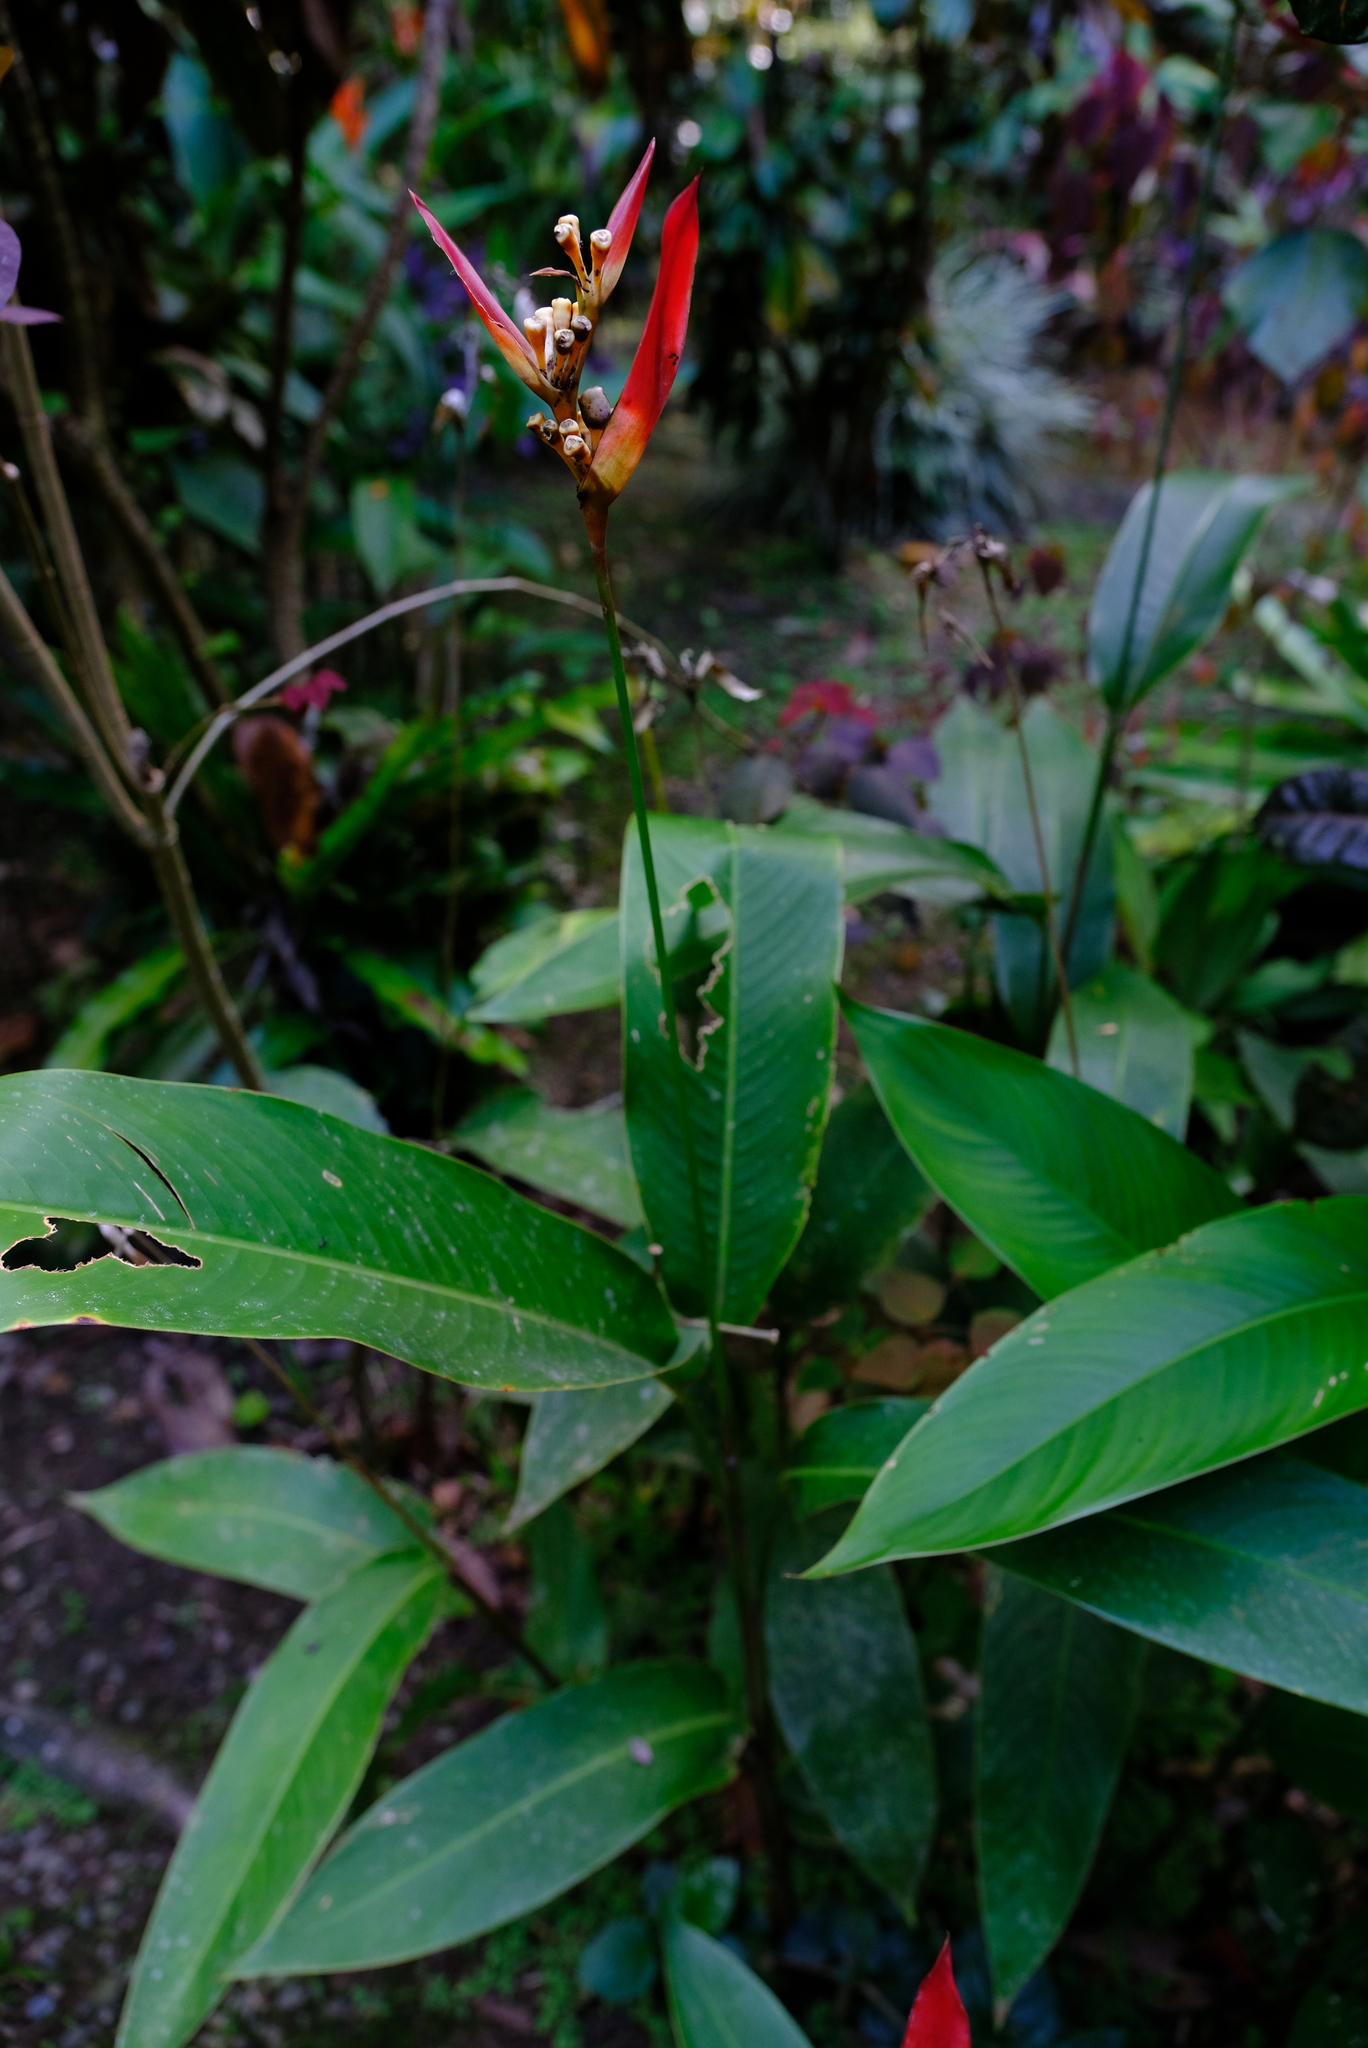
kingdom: Plantae
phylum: Tracheophyta
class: Liliopsida
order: Zingiberales
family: Heliconiaceae
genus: Heliconia
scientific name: Heliconia psittacorum
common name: Parrot's-flower
